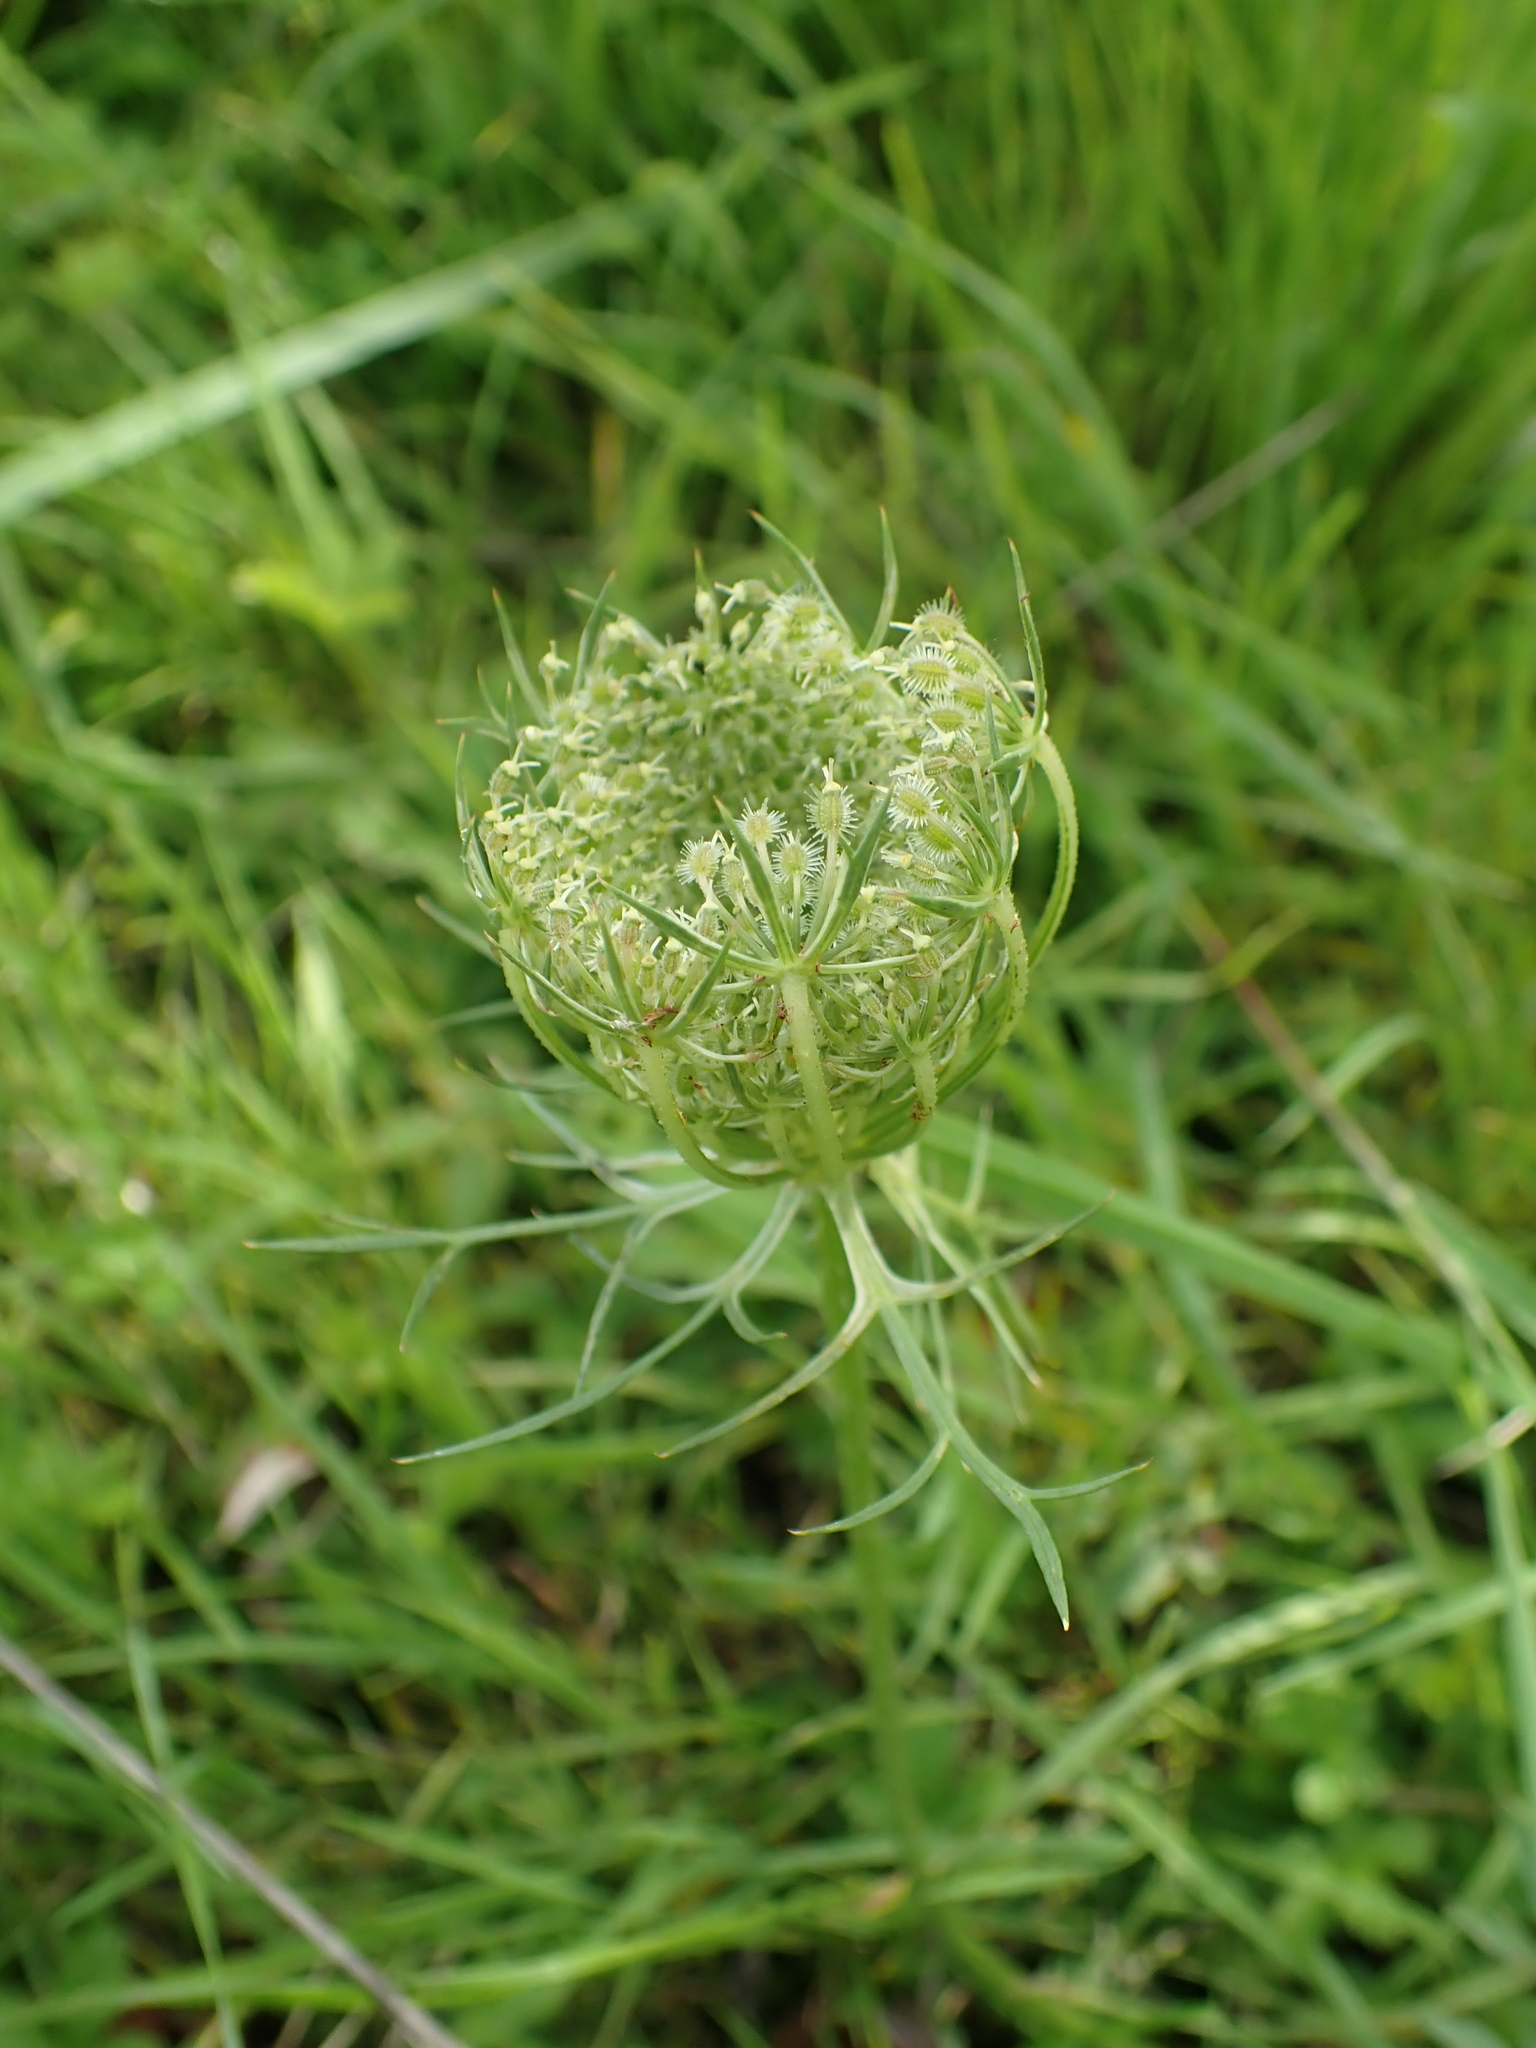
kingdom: Plantae
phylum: Tracheophyta
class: Magnoliopsida
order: Apiales
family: Apiaceae
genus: Daucus
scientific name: Daucus carota
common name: Wild carrot
